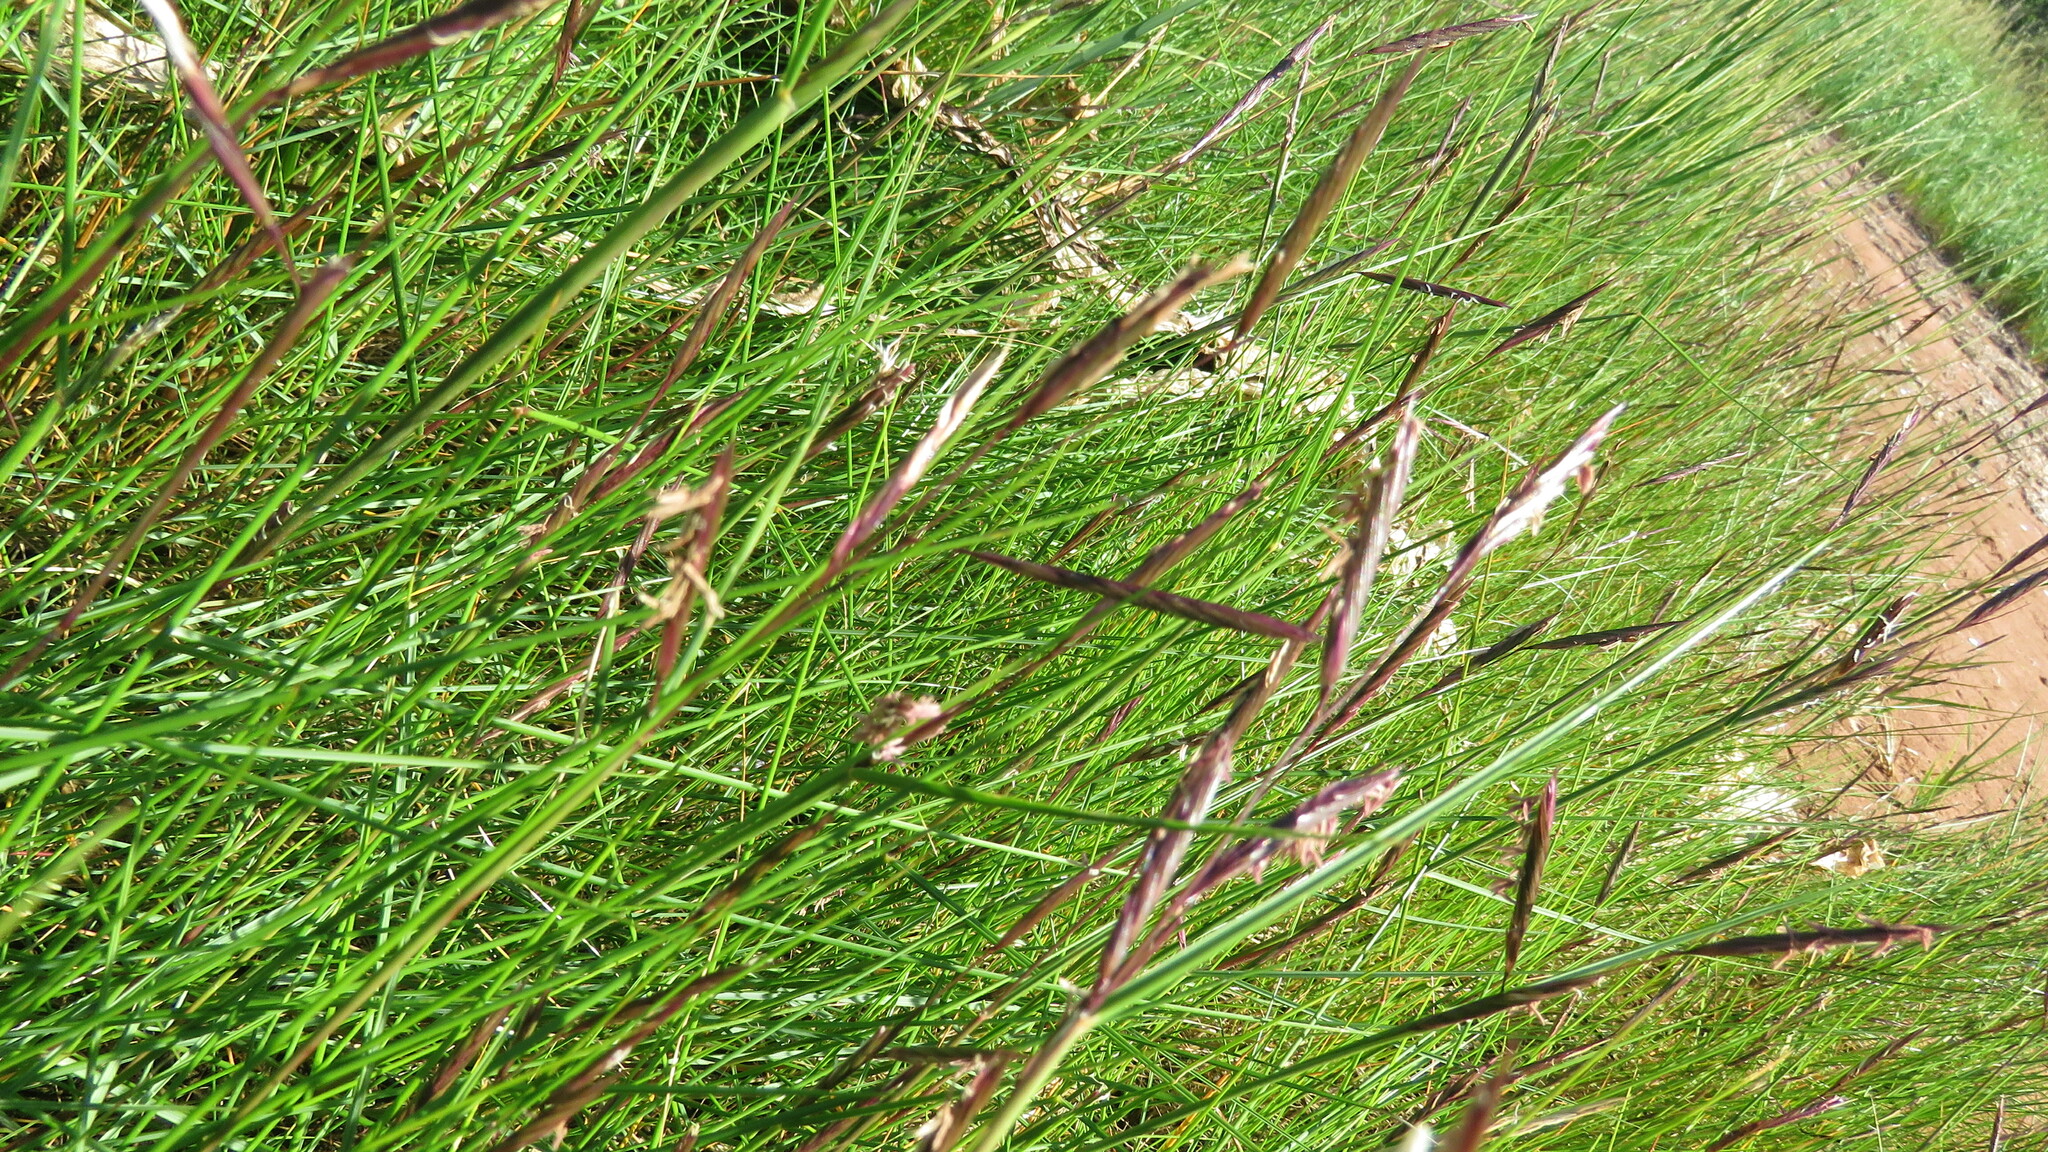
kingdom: Plantae
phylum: Tracheophyta
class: Liliopsida
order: Poales
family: Poaceae
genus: Sporobolus
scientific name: Sporobolus pumilus
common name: Highwater grass
